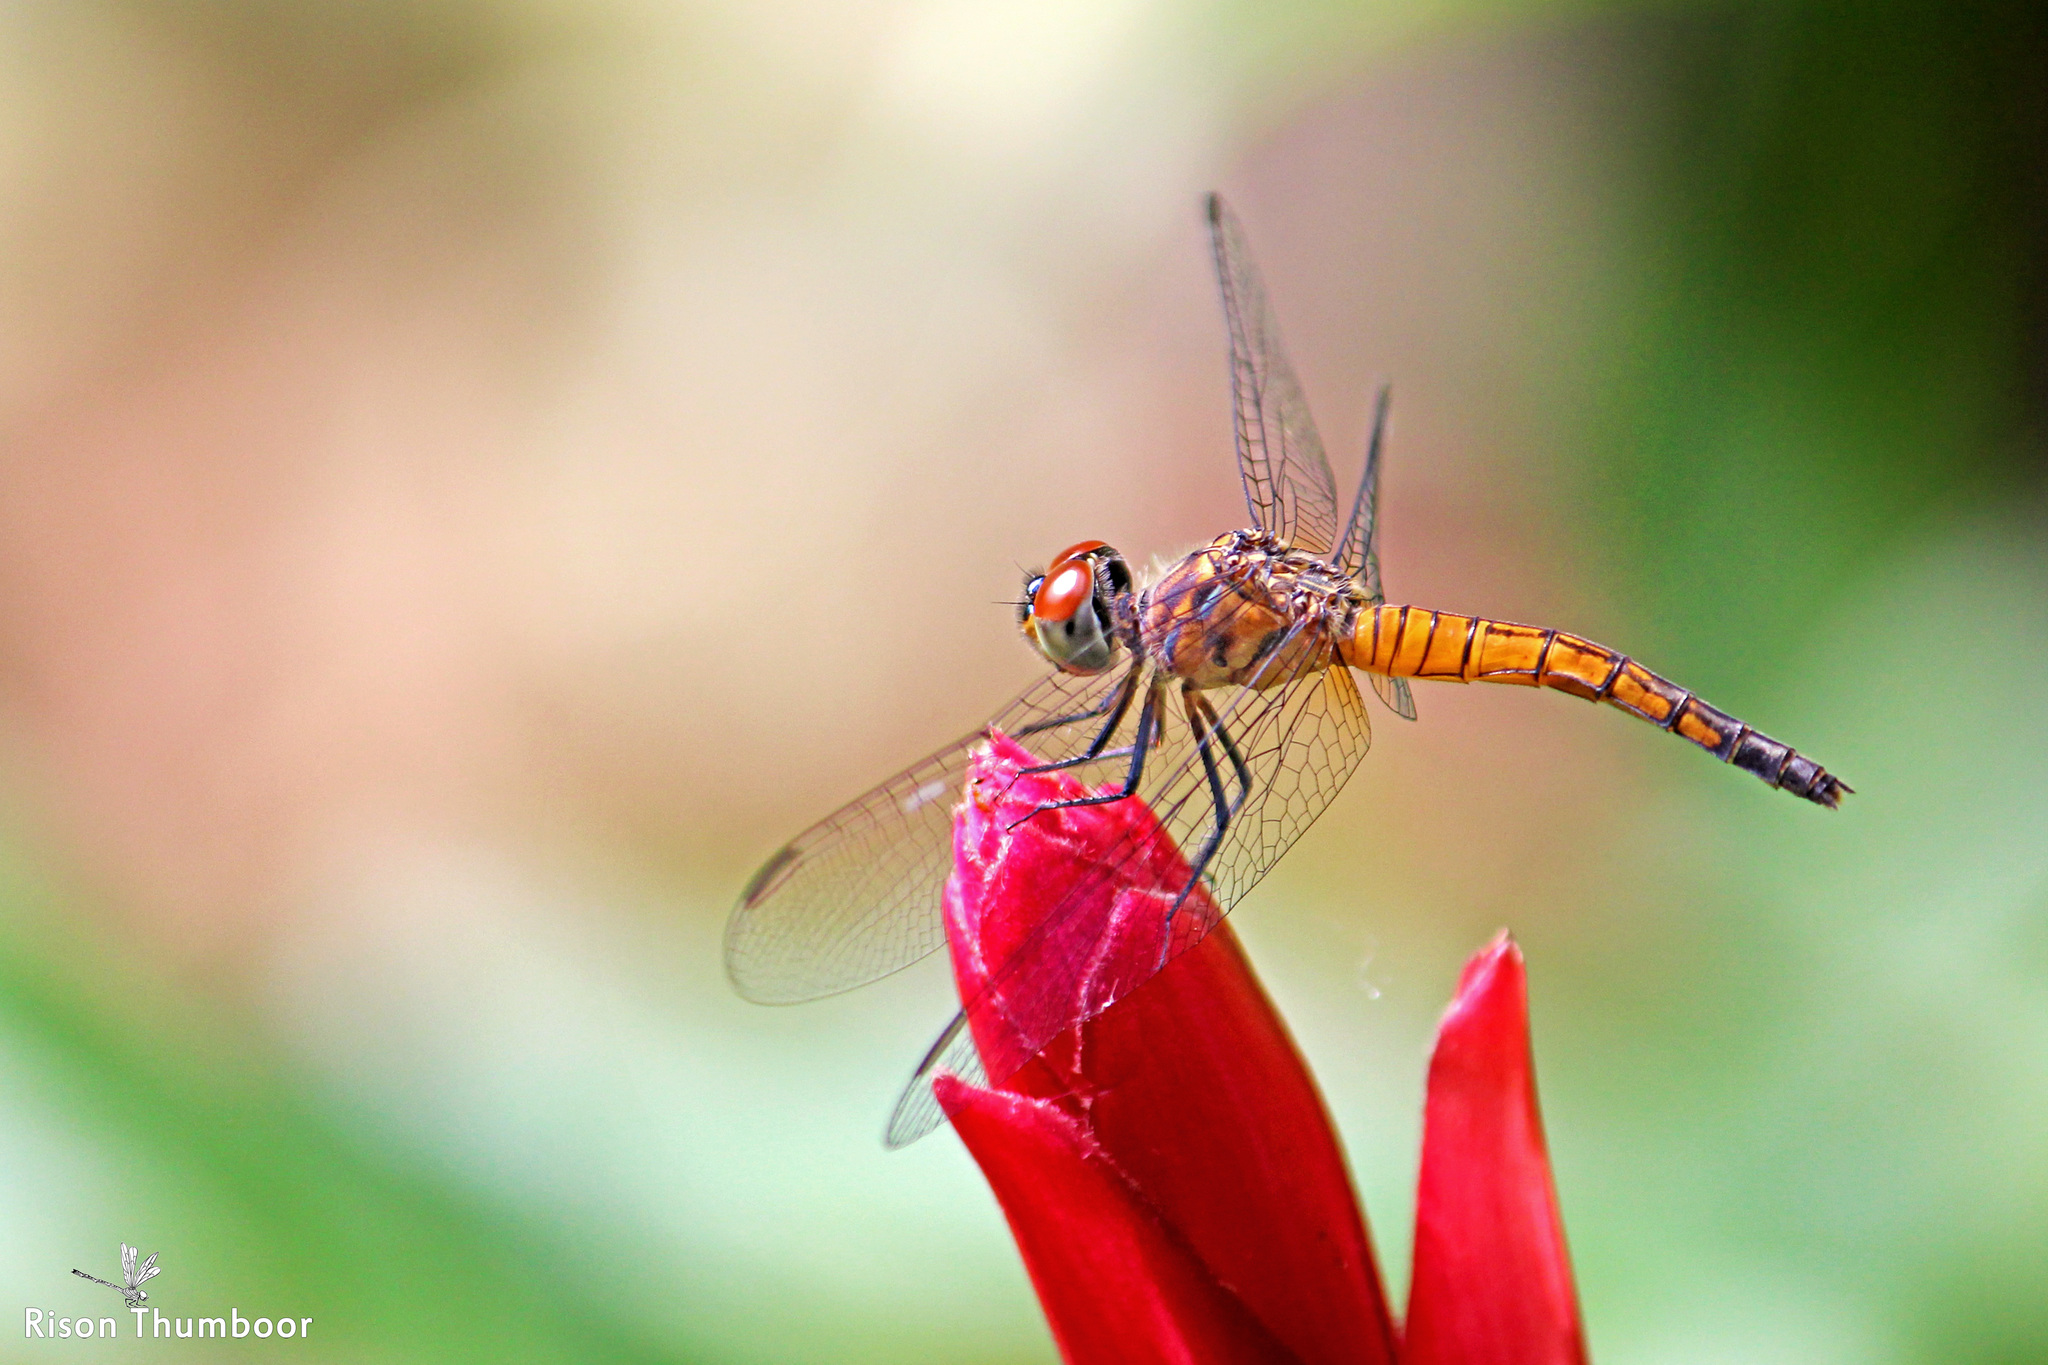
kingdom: Animalia
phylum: Arthropoda
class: Insecta
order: Odonata
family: Libellulidae
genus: Brachydiplax
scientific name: Brachydiplax chalybea
